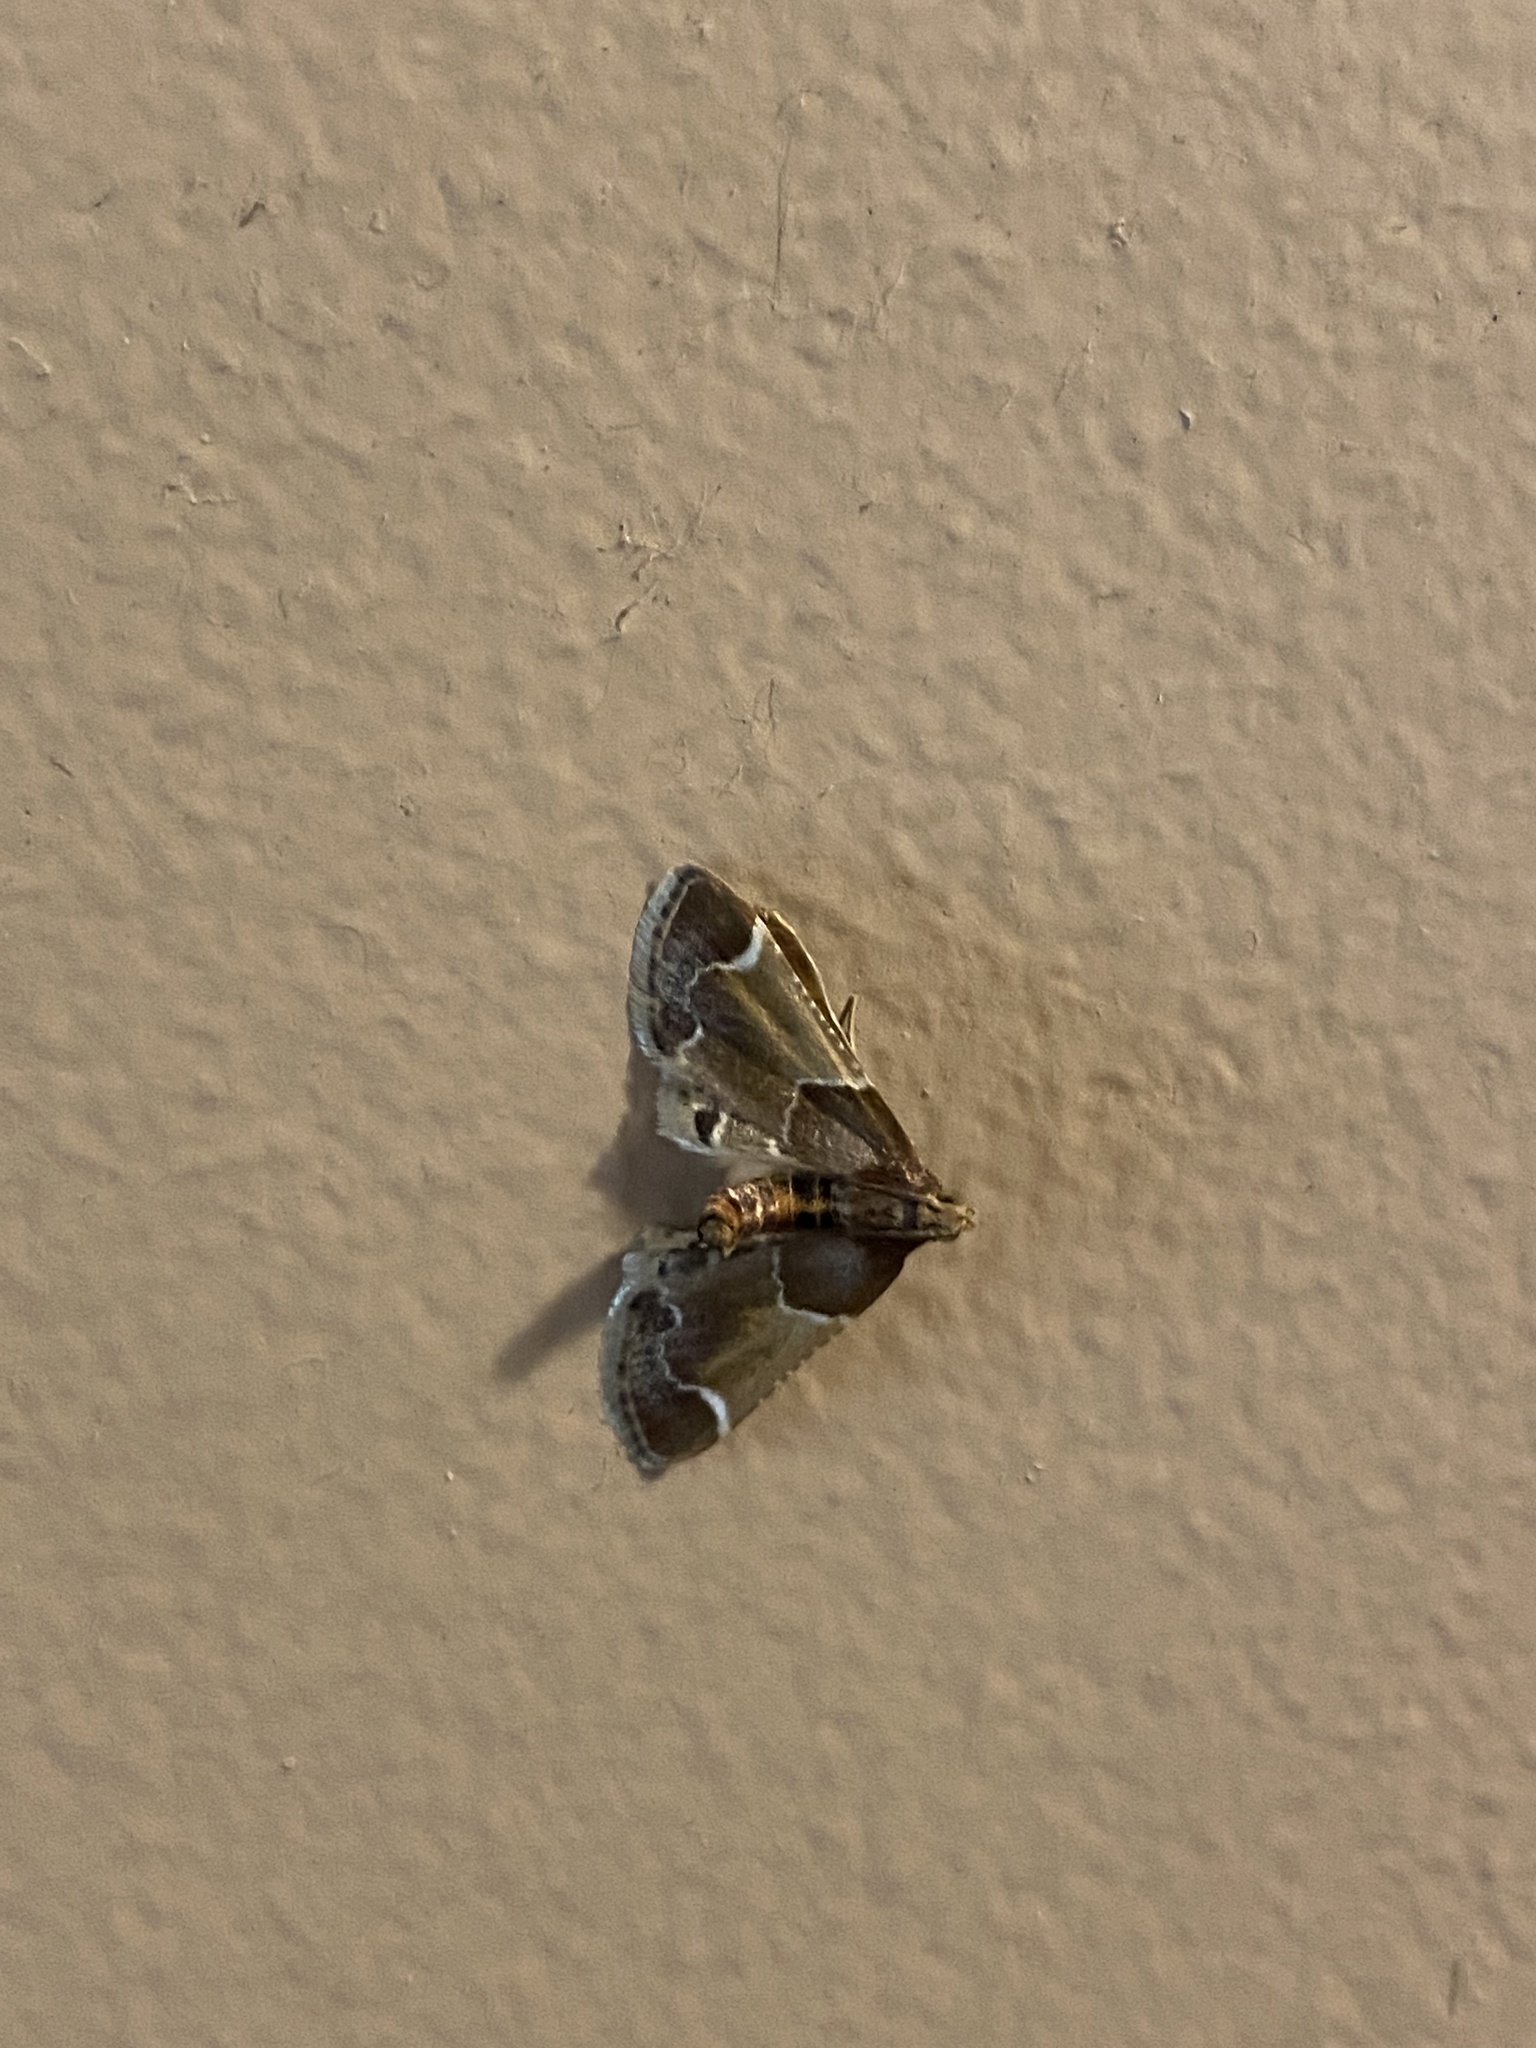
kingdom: Animalia
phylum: Arthropoda
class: Insecta
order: Lepidoptera
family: Pyralidae
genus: Pyralis
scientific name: Pyralis farinalis
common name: Meal moth
